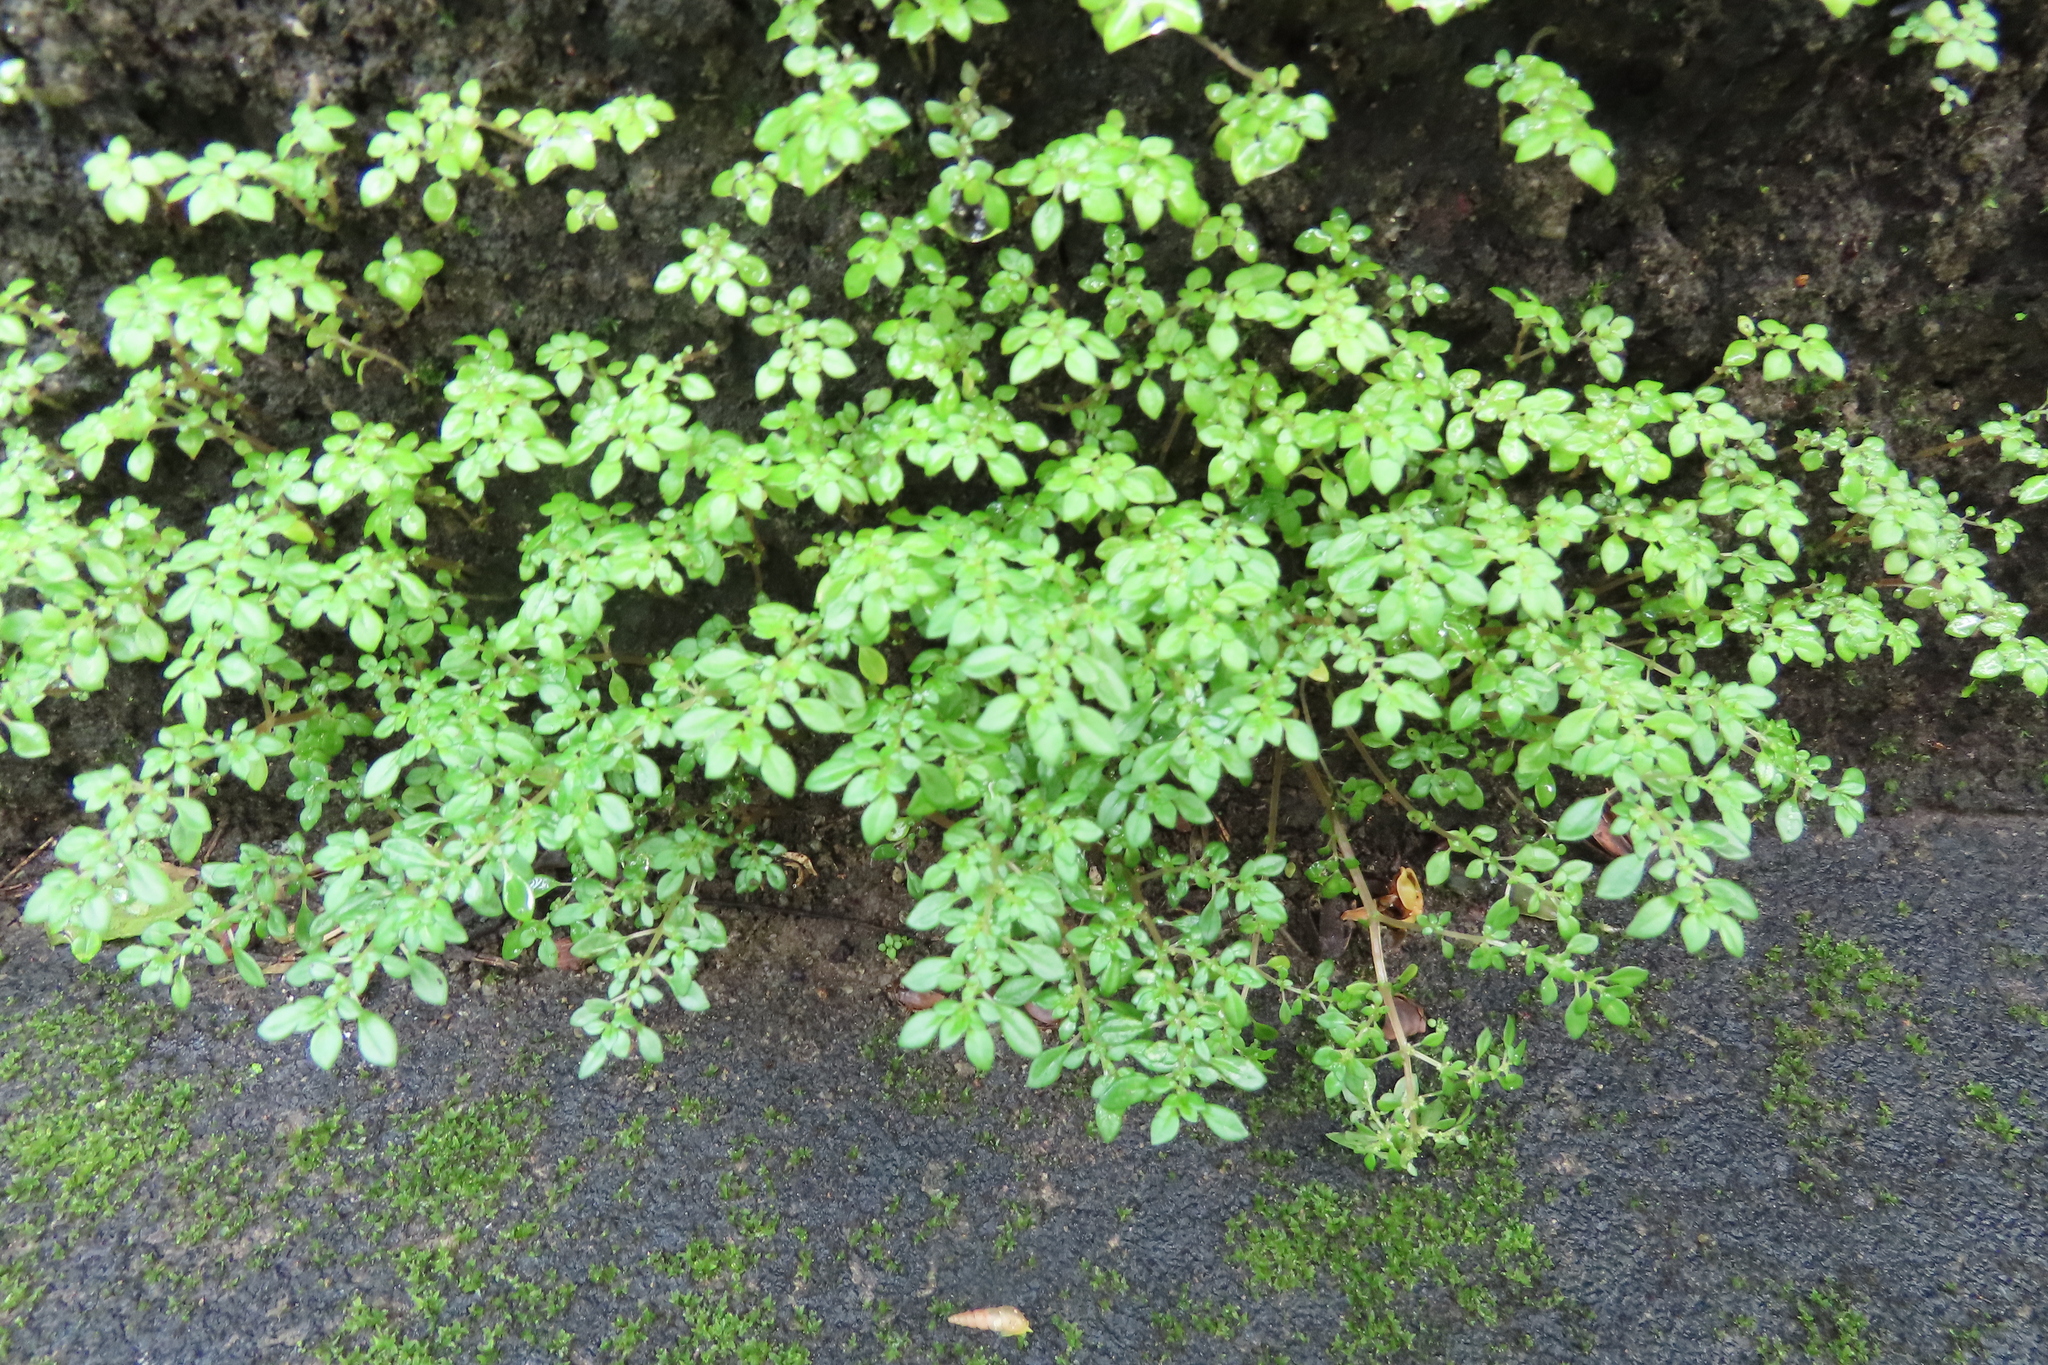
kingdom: Plantae
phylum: Tracheophyta
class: Magnoliopsida
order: Rosales
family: Urticaceae
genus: Pilea
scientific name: Pilea microphylla
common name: Artillery-plant
